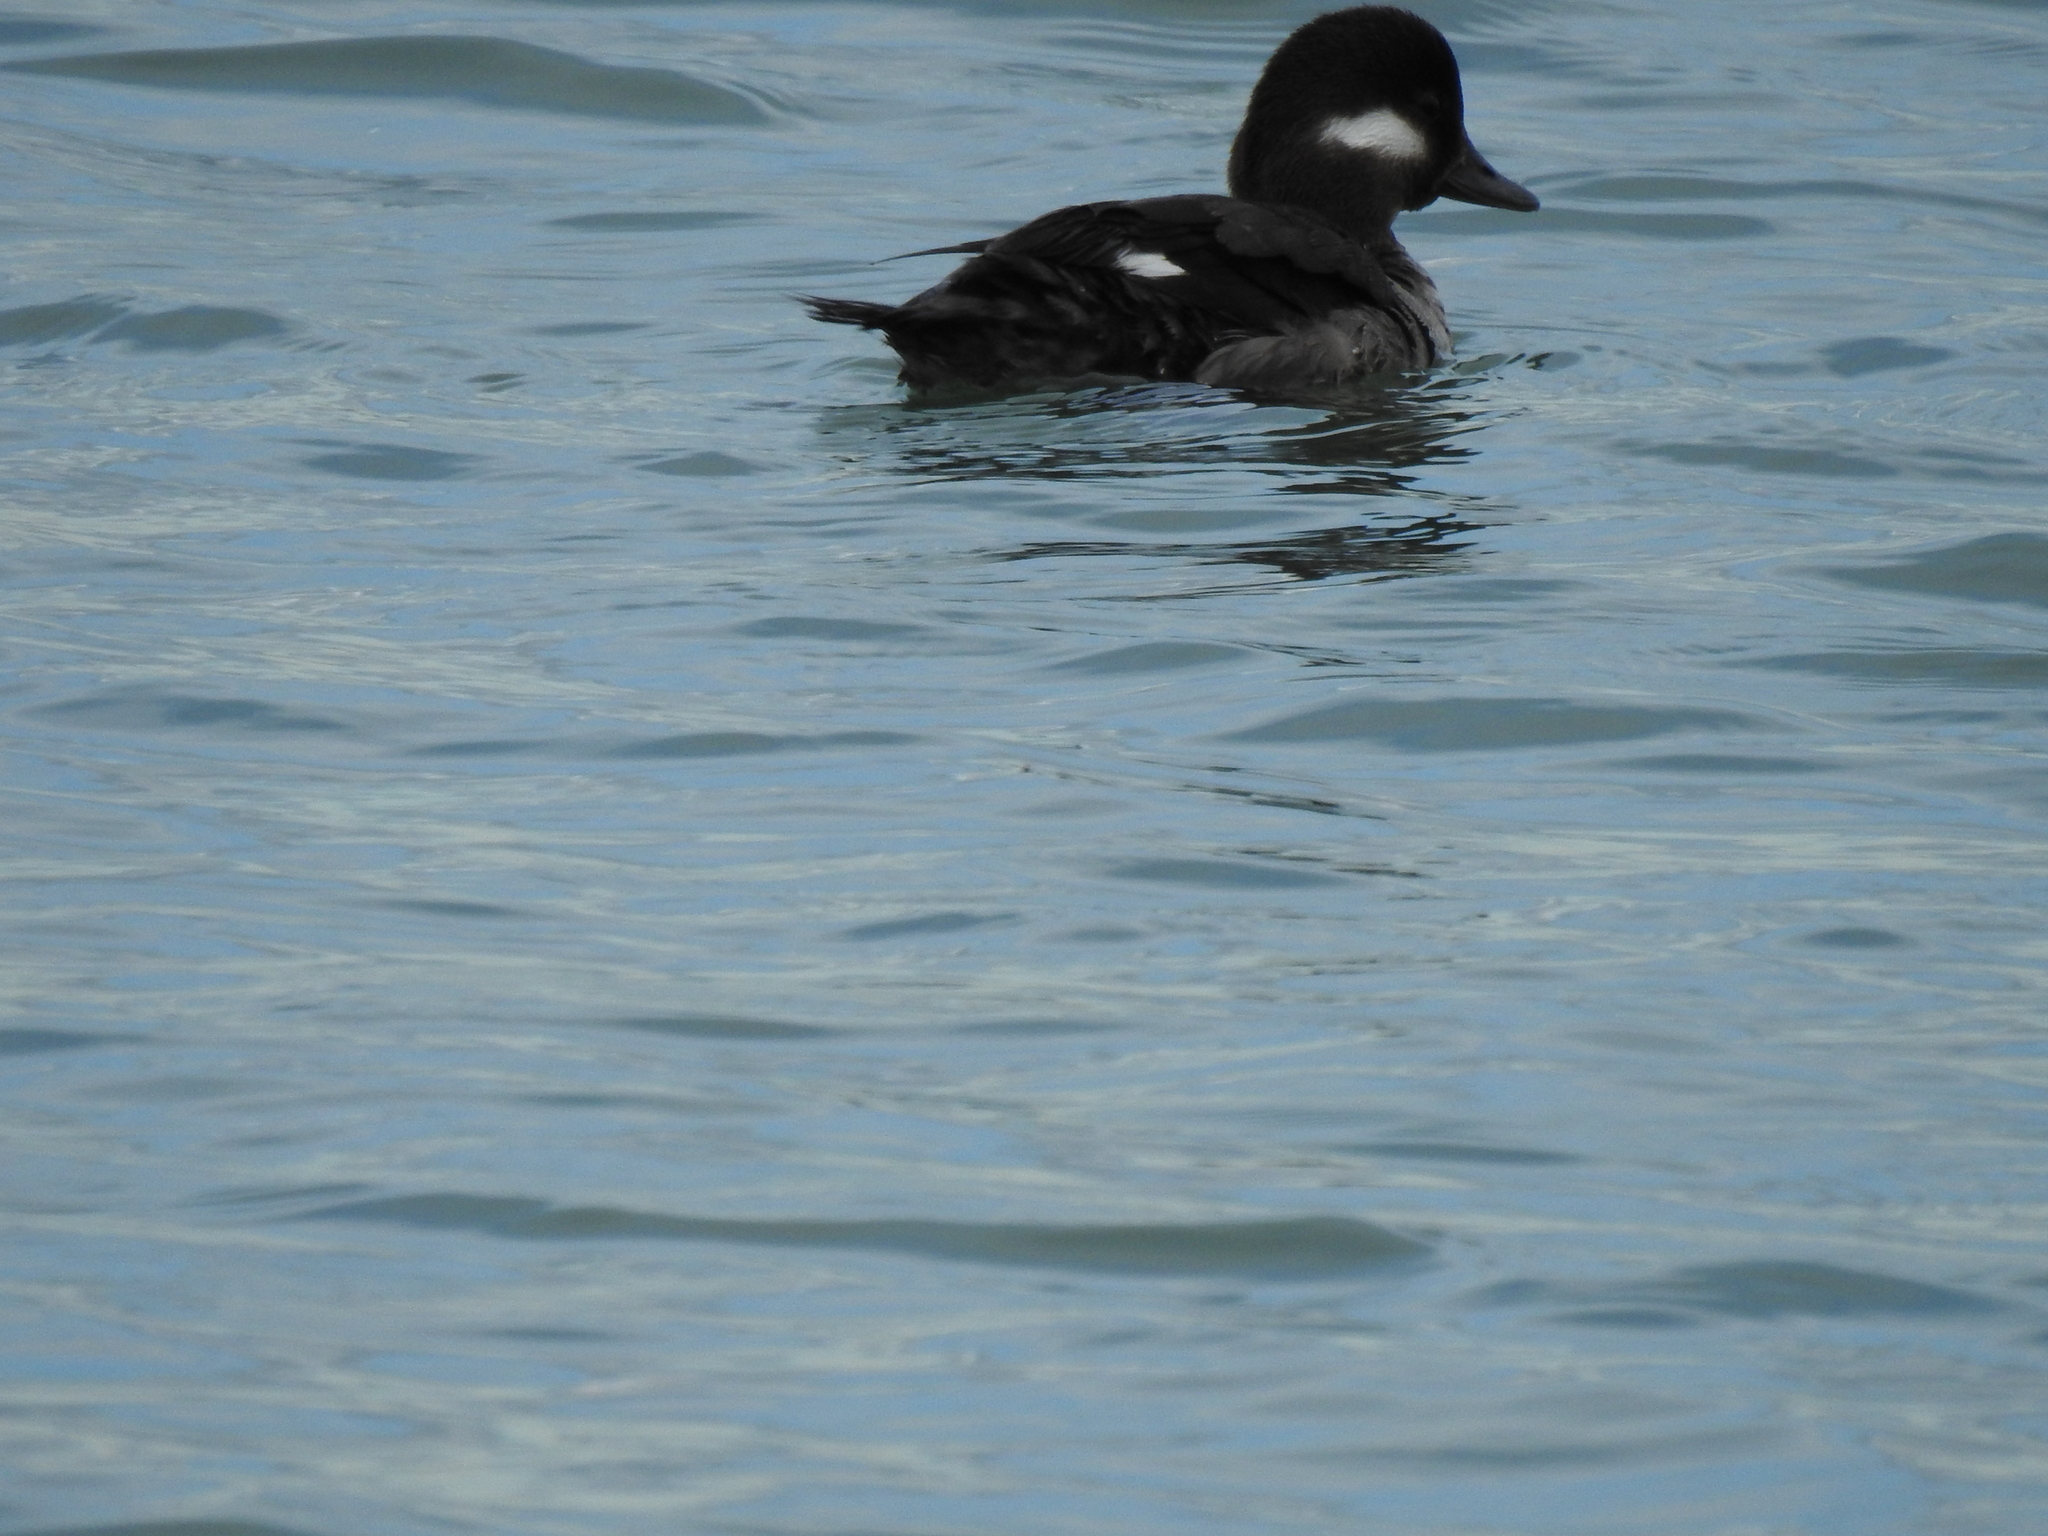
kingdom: Animalia
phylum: Chordata
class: Aves
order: Anseriformes
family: Anatidae
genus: Bucephala
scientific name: Bucephala albeola
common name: Bufflehead
